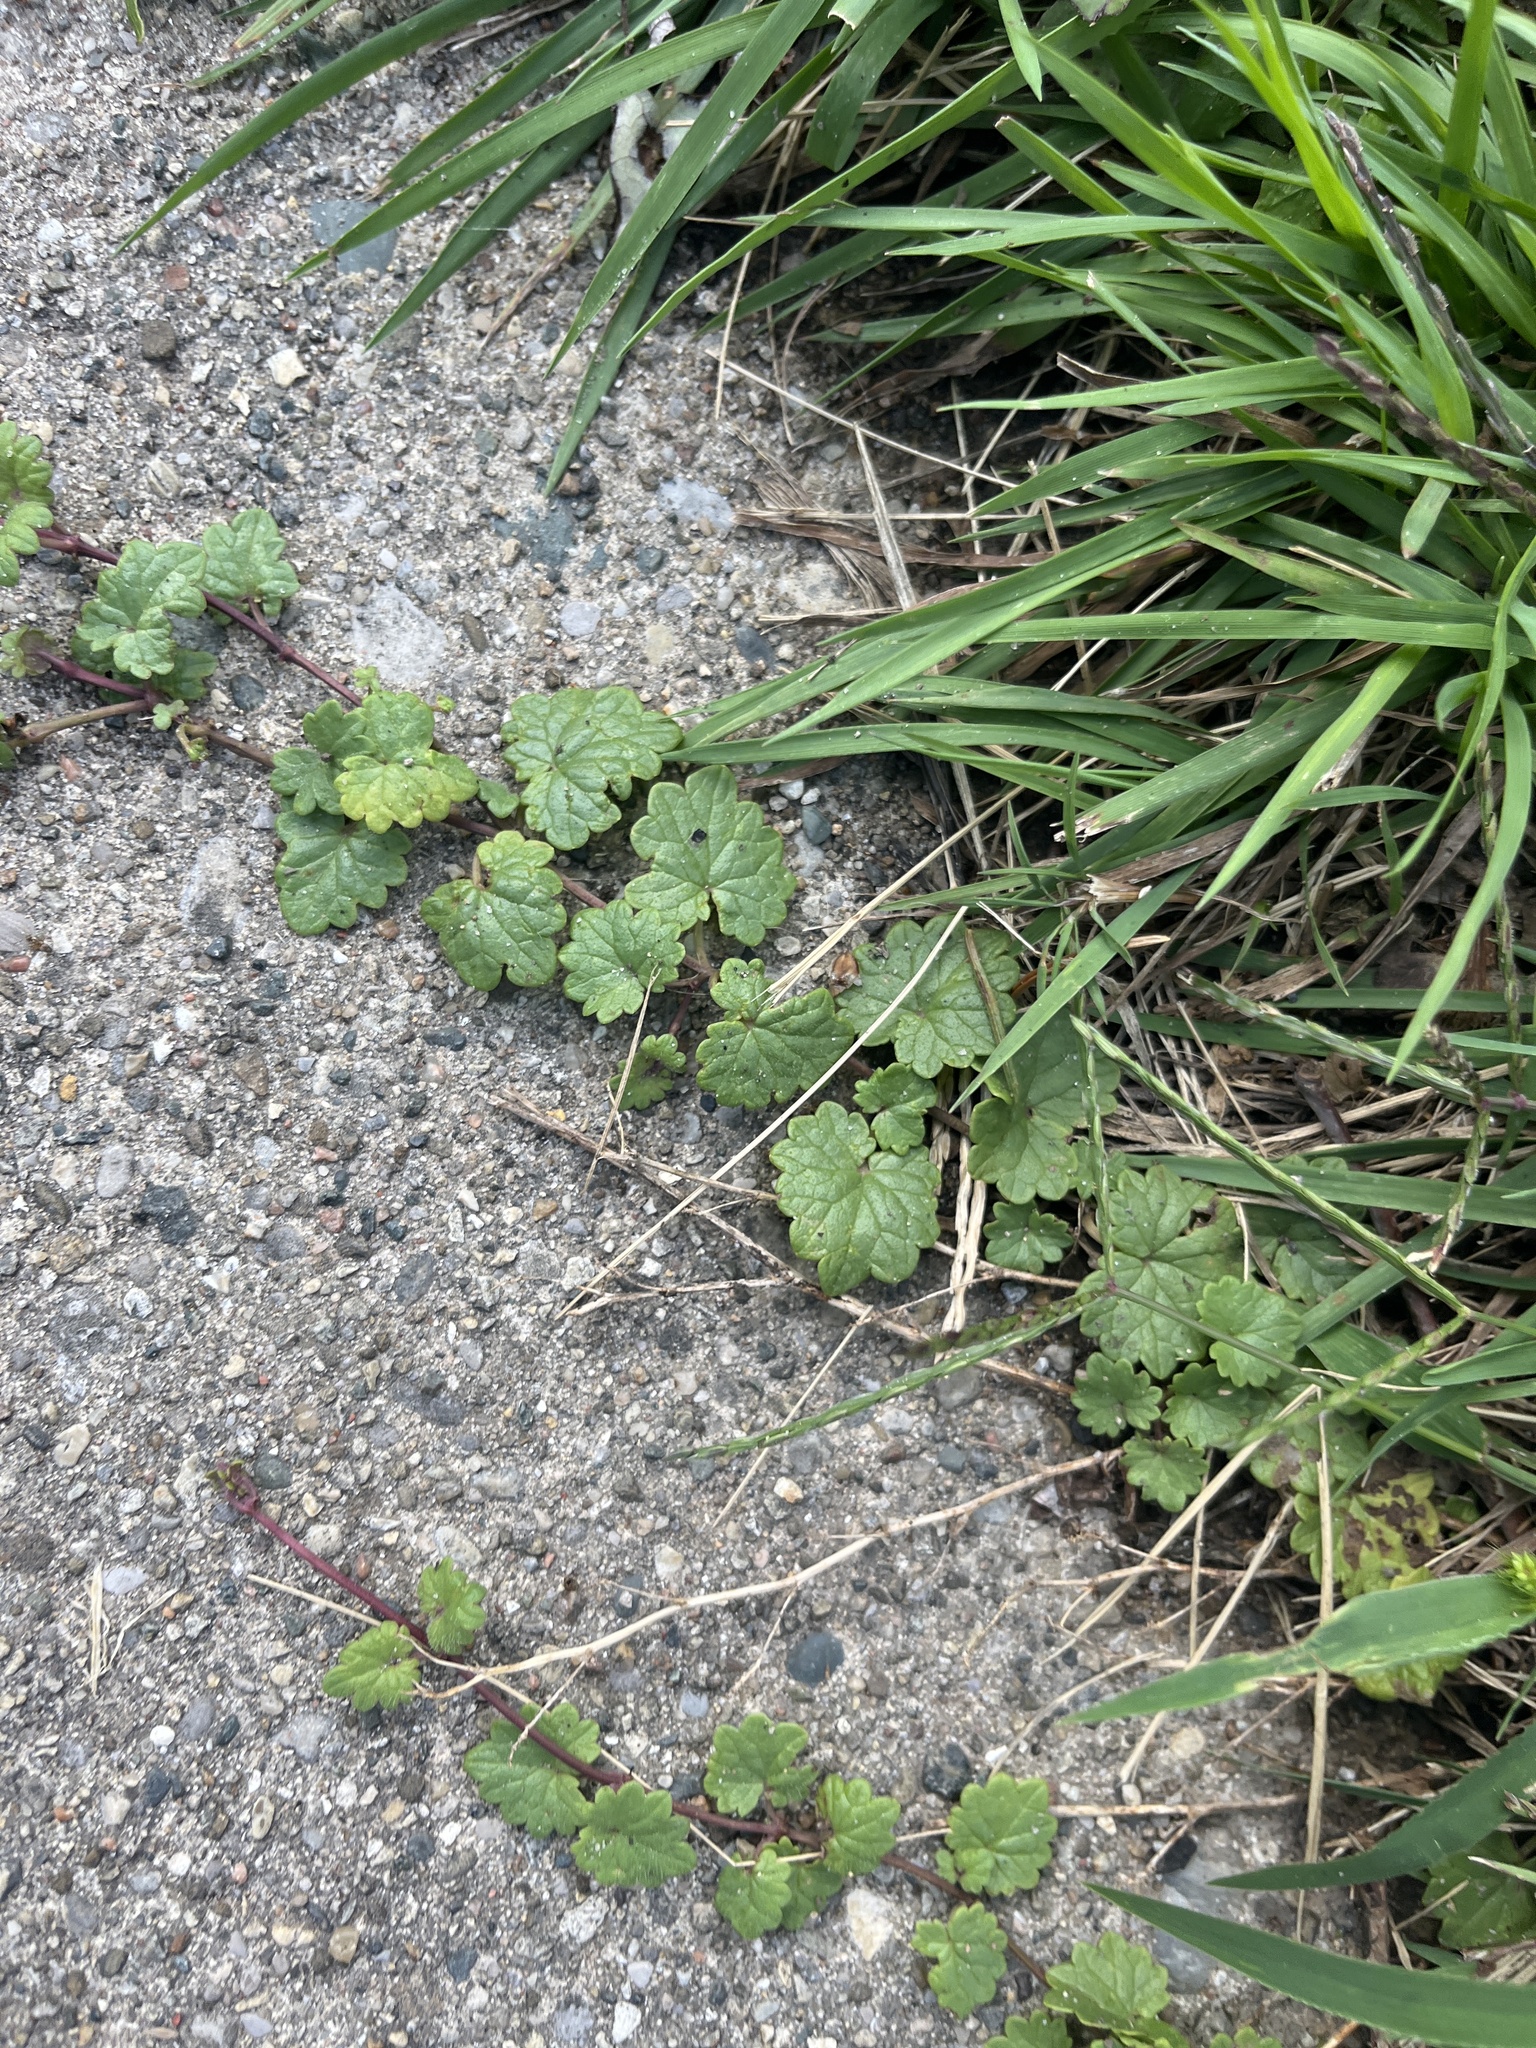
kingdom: Plantae
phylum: Tracheophyta
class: Magnoliopsida
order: Lamiales
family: Lamiaceae
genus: Glechoma
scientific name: Glechoma hederacea
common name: Ground ivy
